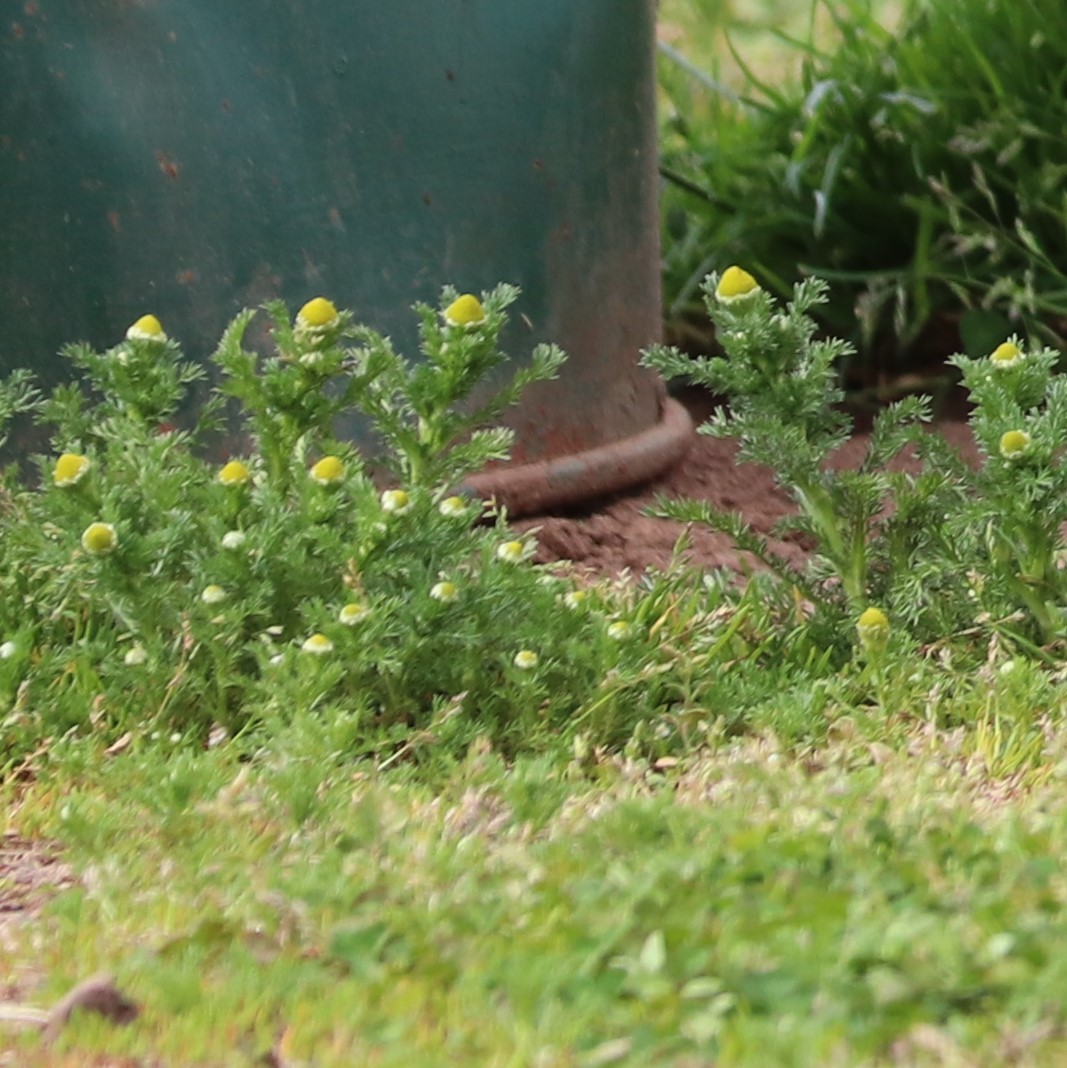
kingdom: Plantae
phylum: Tracheophyta
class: Magnoliopsida
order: Asterales
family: Asteraceae
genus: Matricaria
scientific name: Matricaria discoidea
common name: Disc mayweed
